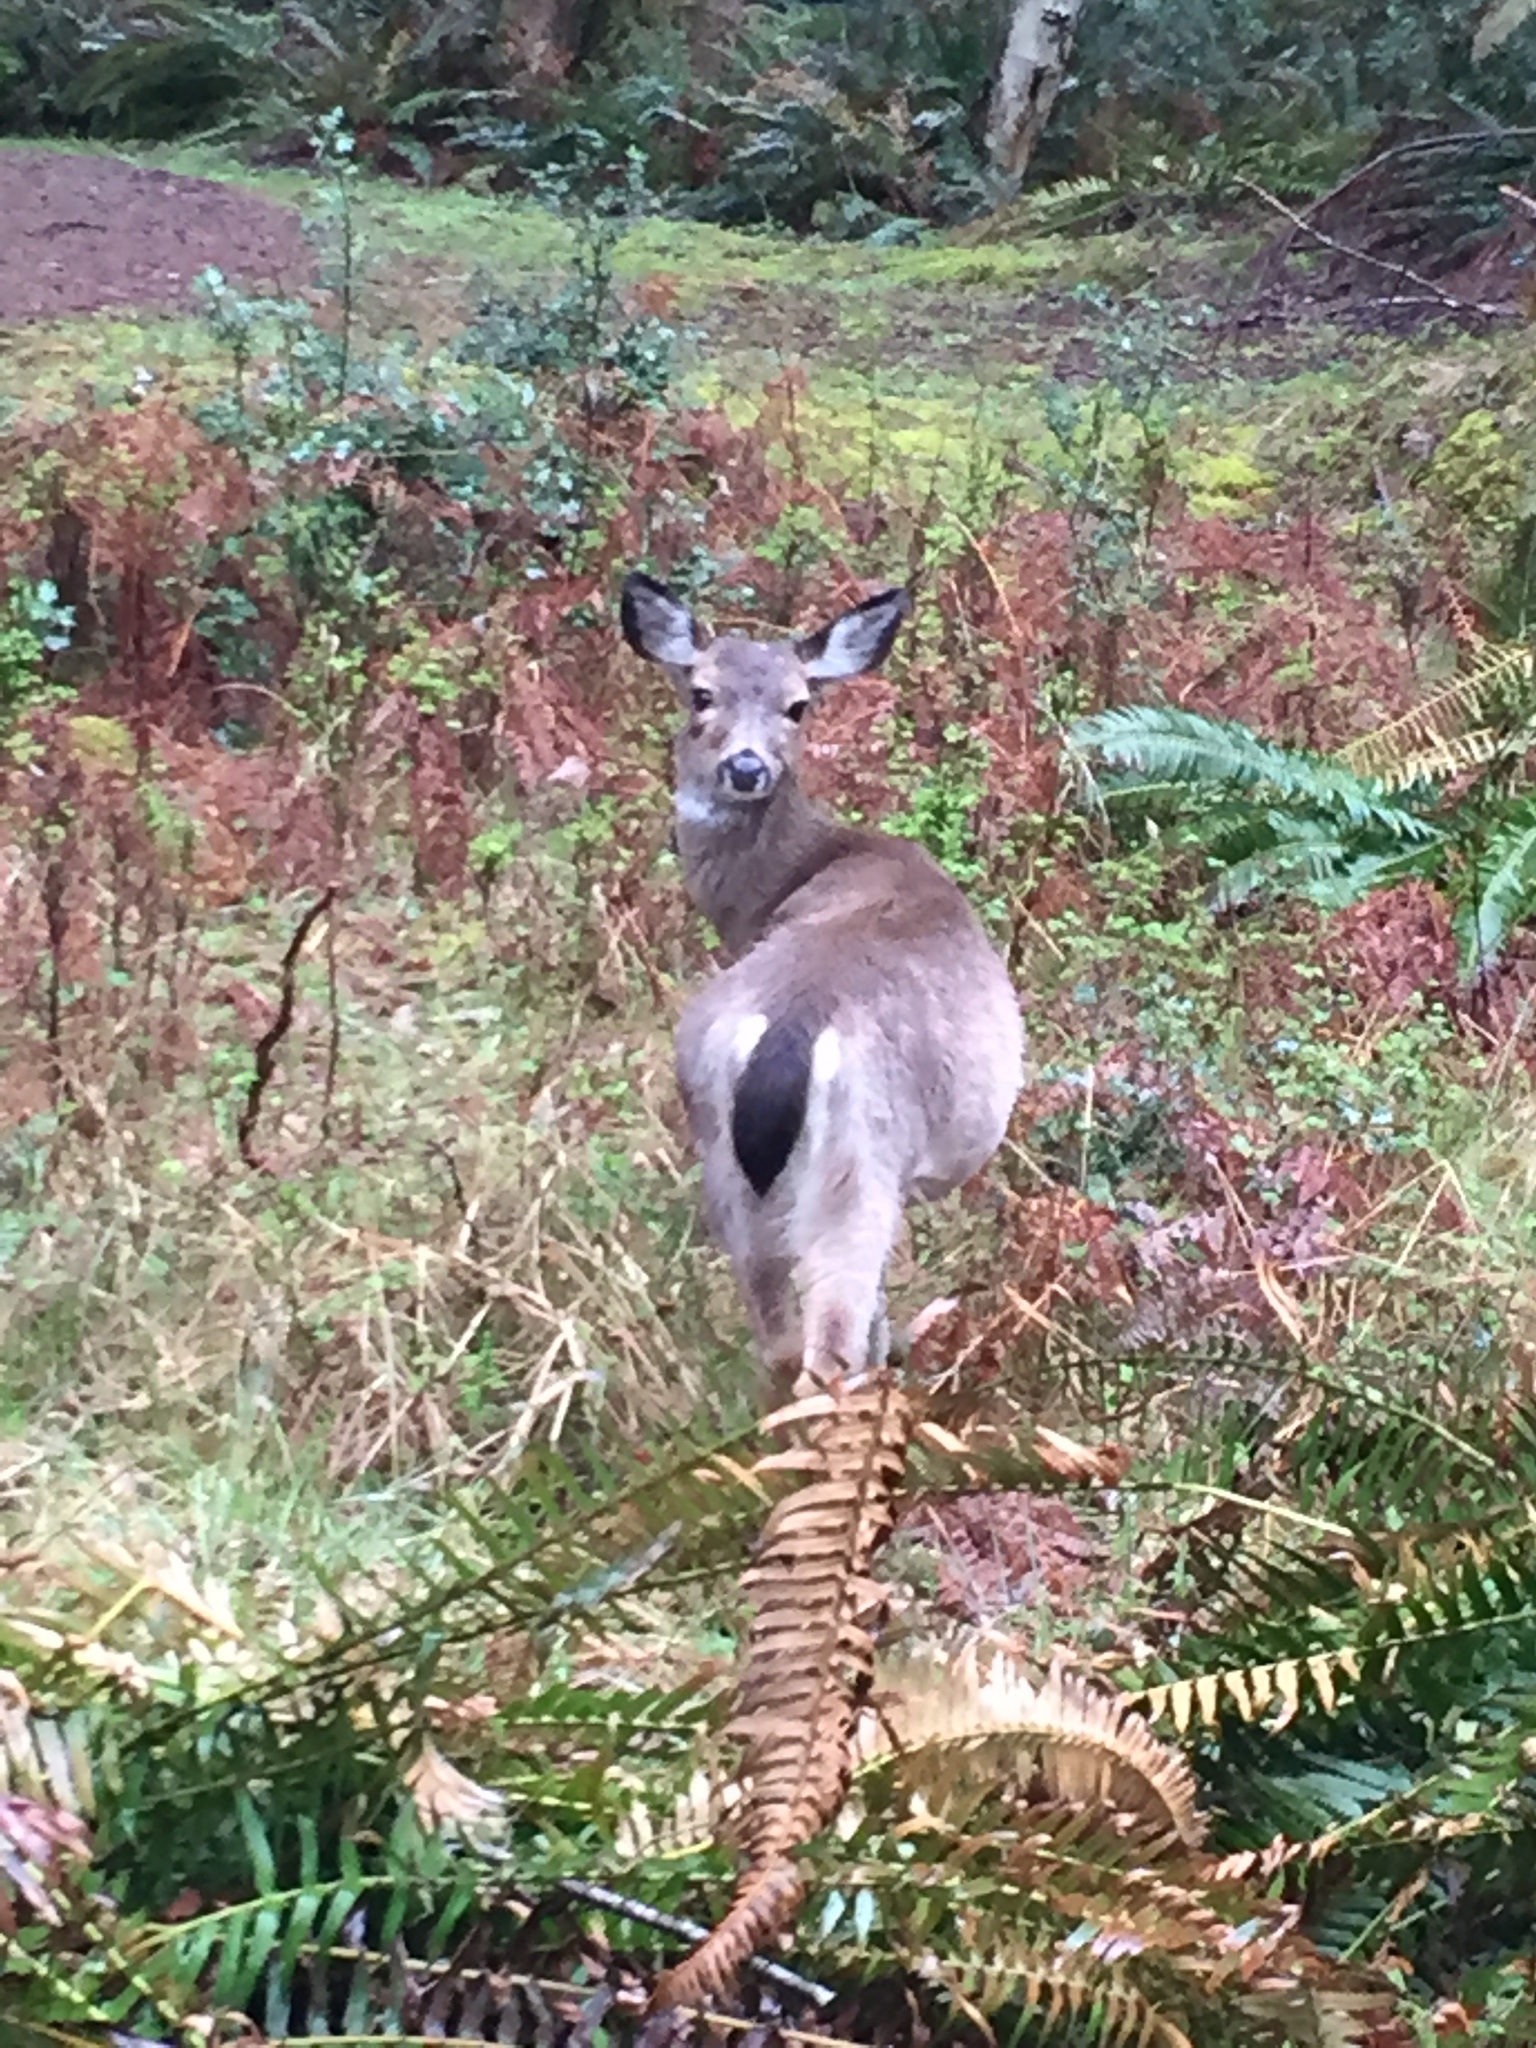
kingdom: Animalia
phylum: Chordata
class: Mammalia
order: Artiodactyla
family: Cervidae
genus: Odocoileus
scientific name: Odocoileus hemionus
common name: Mule deer
